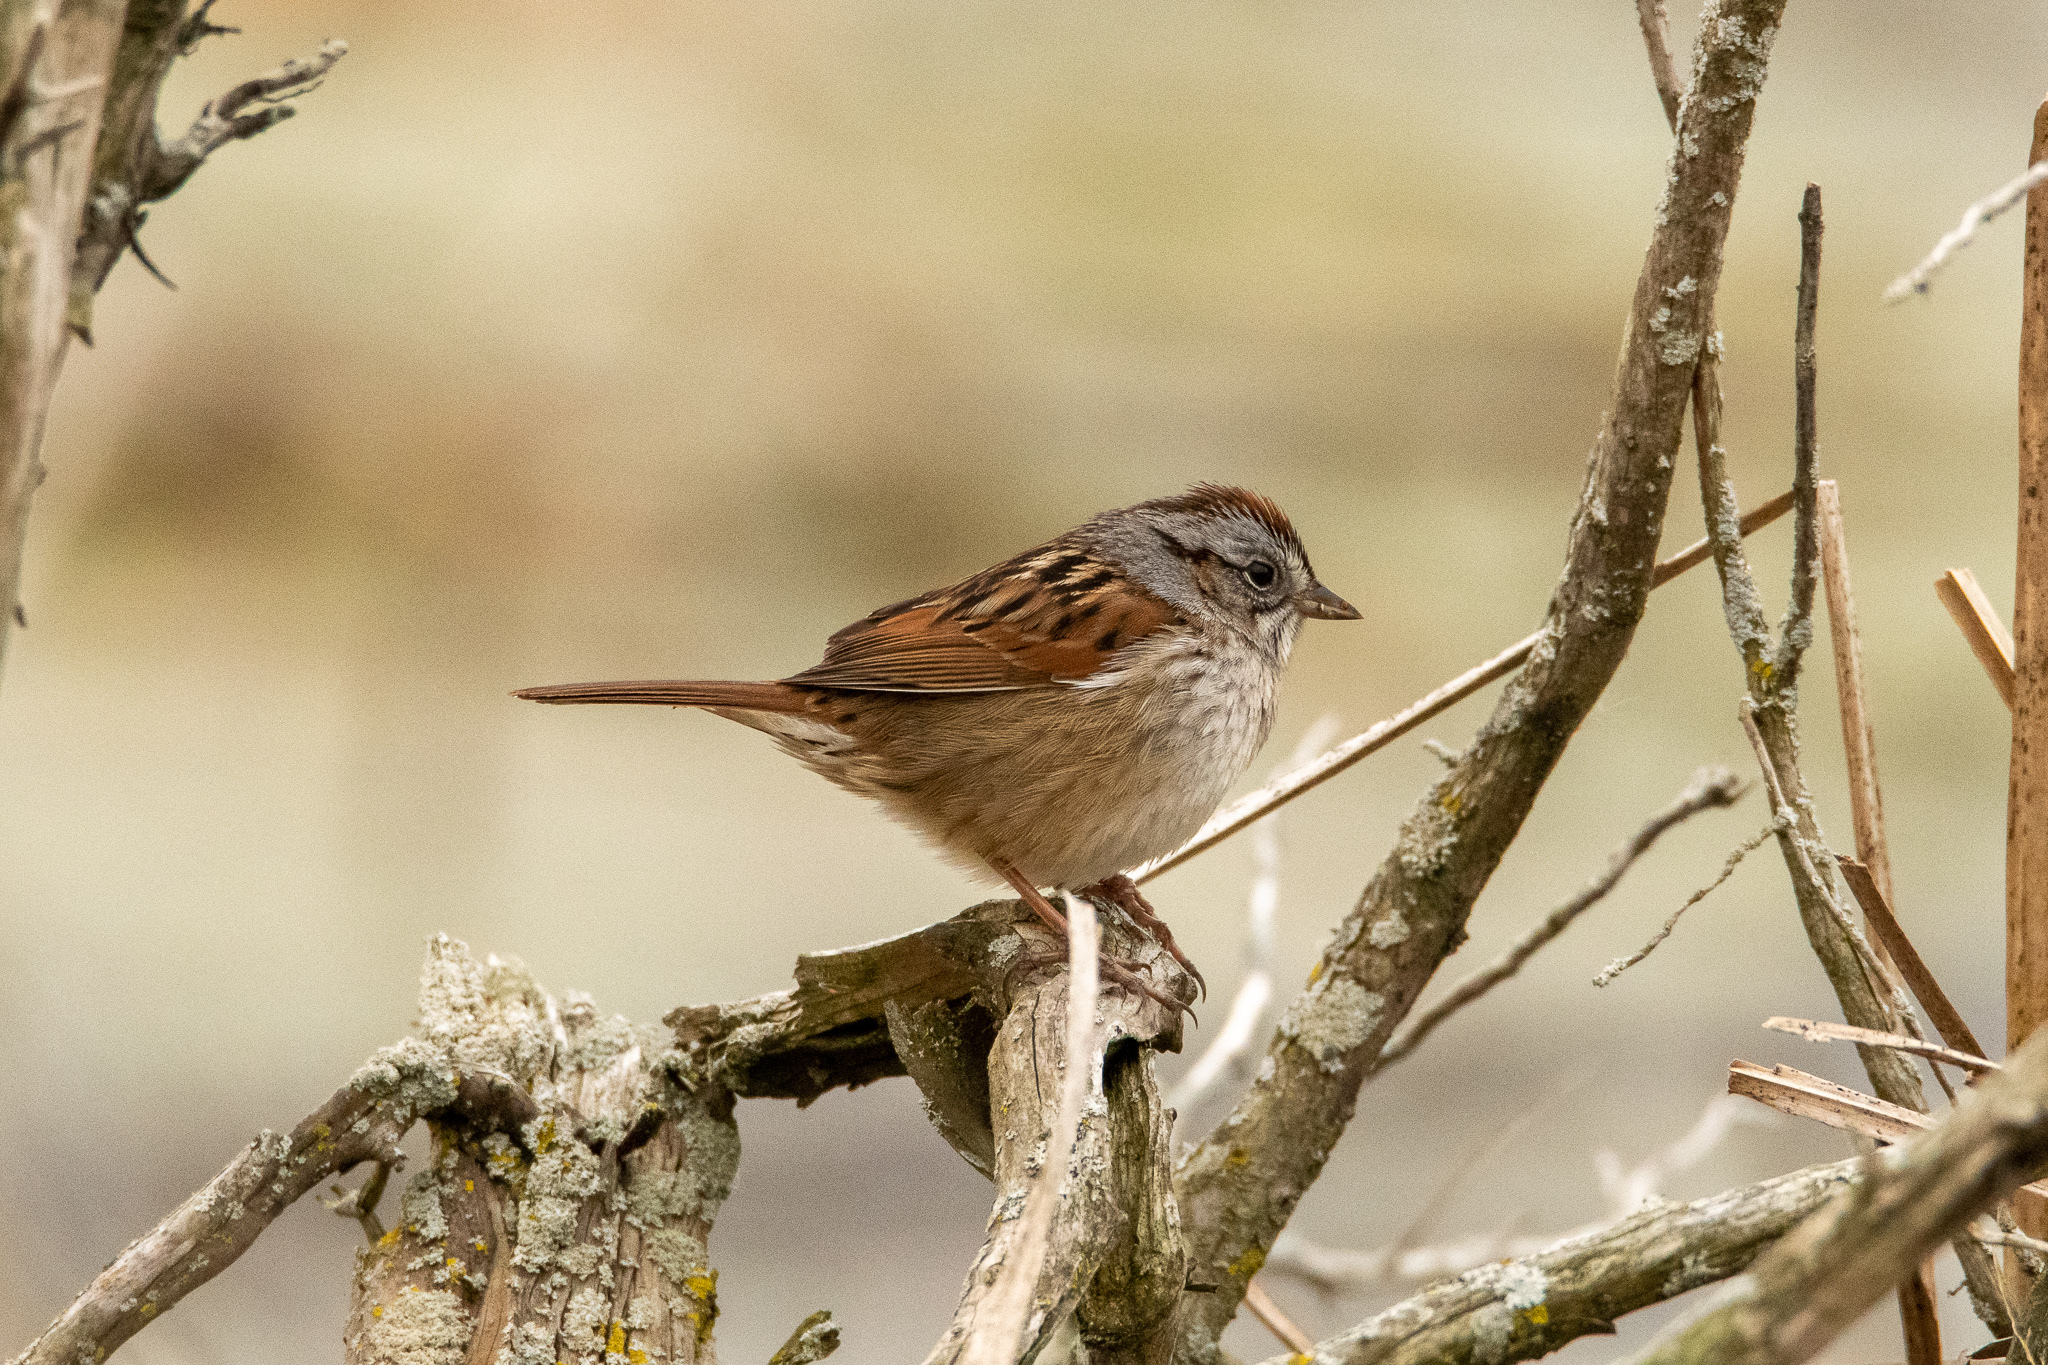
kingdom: Animalia
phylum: Chordata
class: Aves
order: Passeriformes
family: Passerellidae
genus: Melospiza
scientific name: Melospiza georgiana
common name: Swamp sparrow
